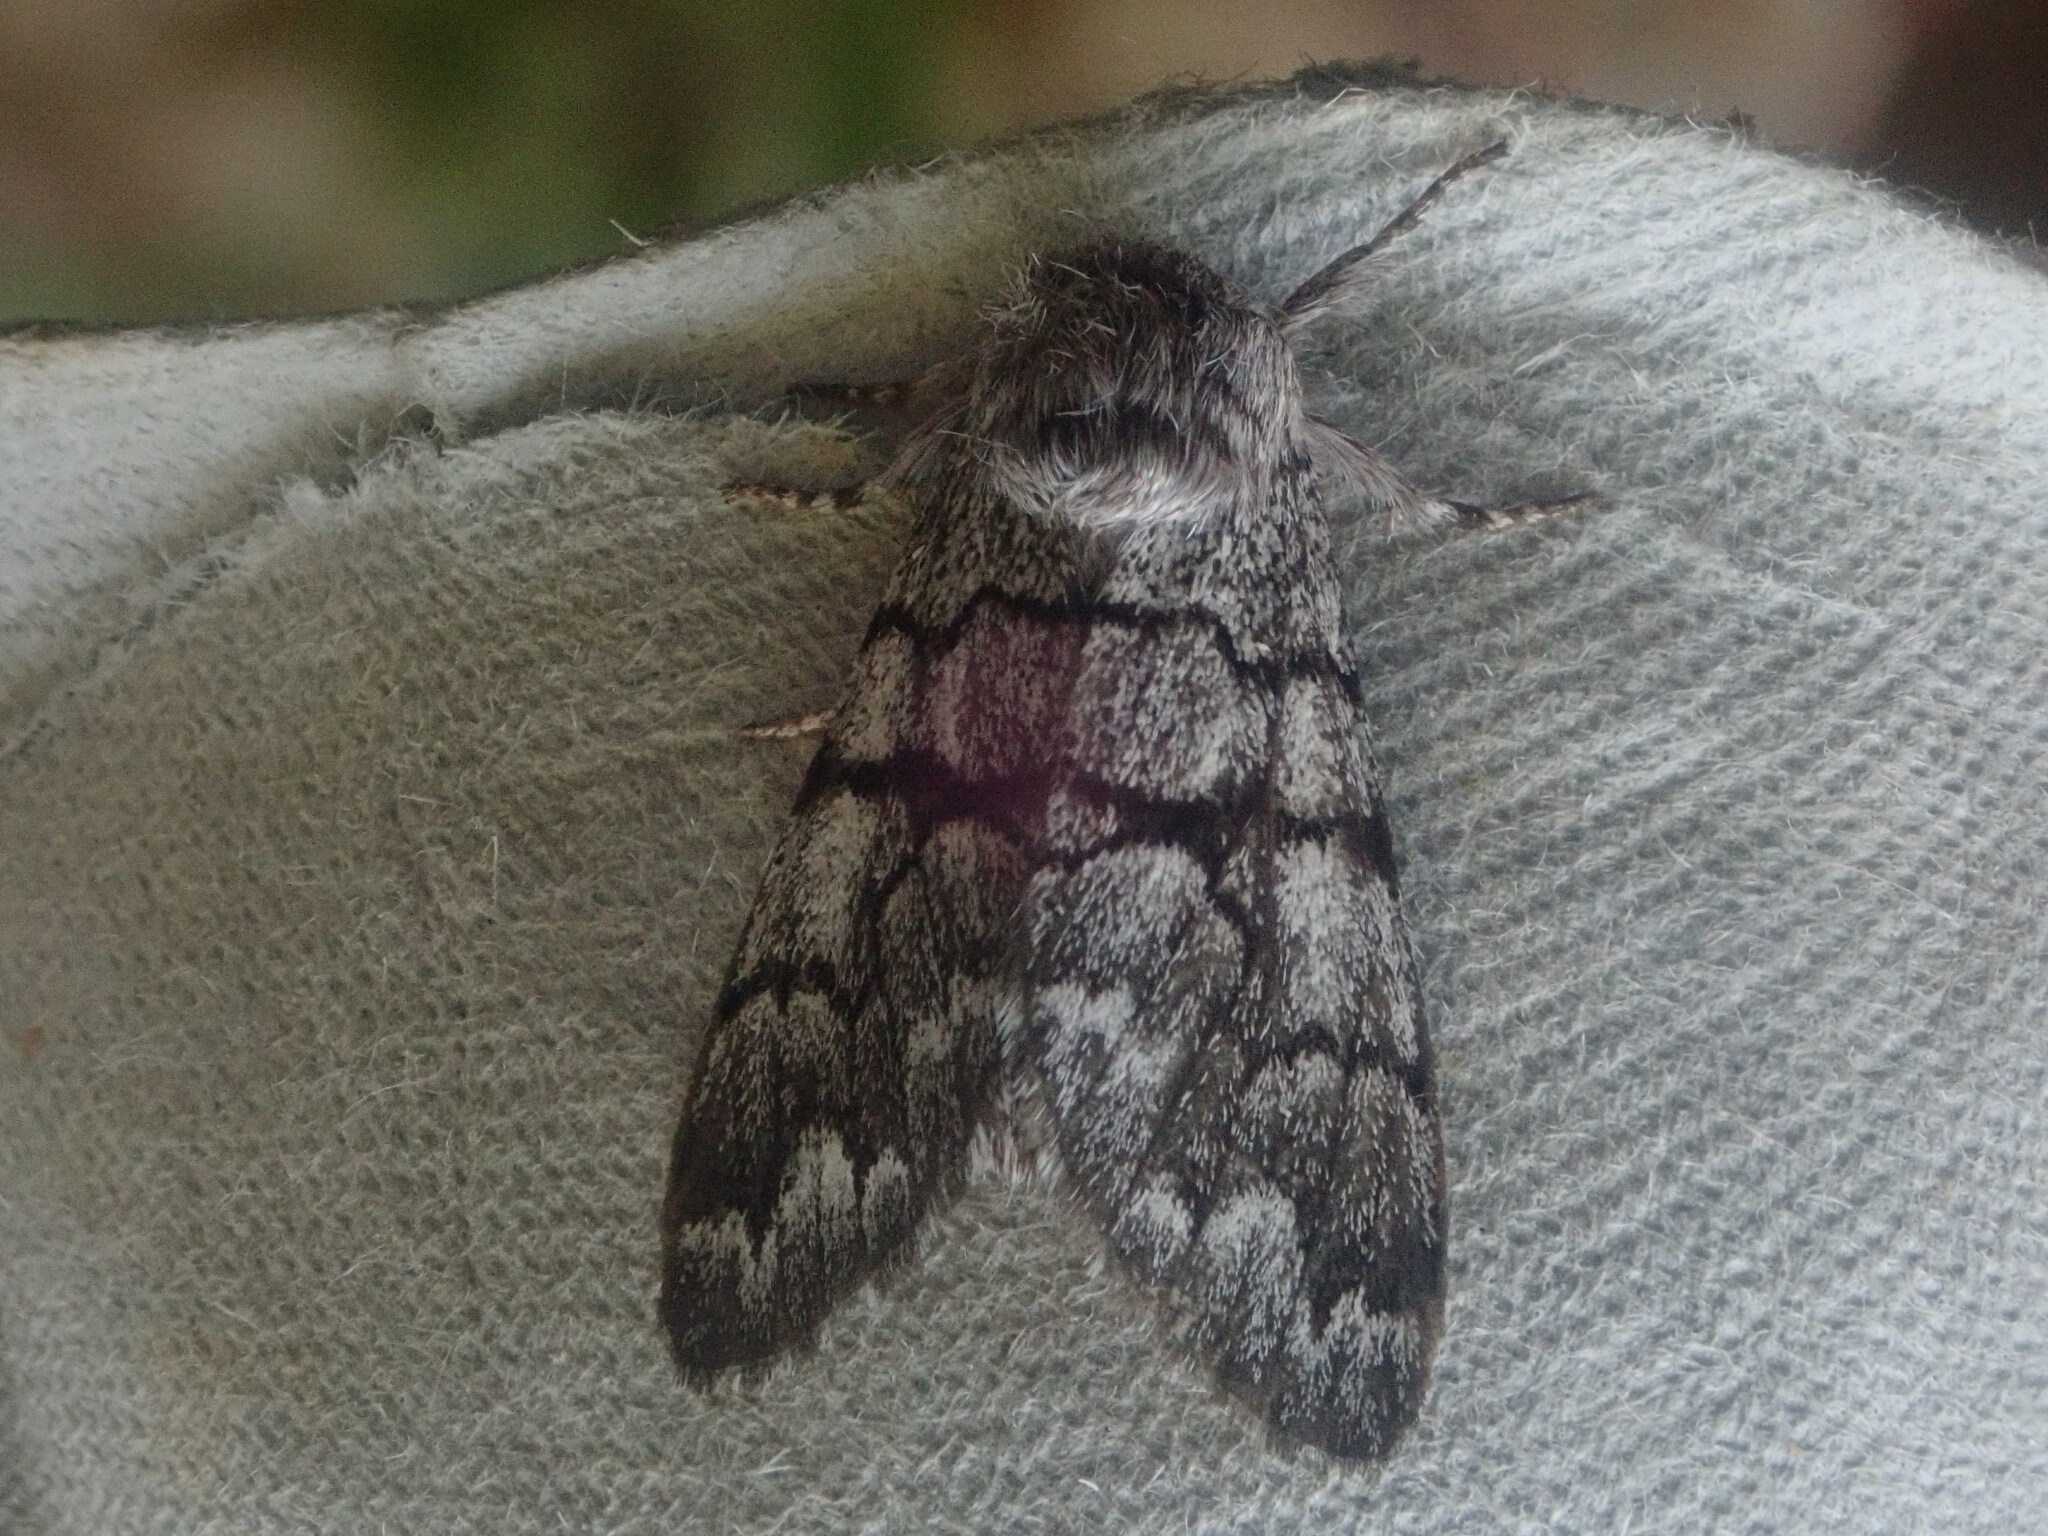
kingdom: Animalia
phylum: Arthropoda
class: Insecta
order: Lepidoptera
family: Noctuidae
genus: Panthea
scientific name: Panthea furcilla
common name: Eastern panthea moth
